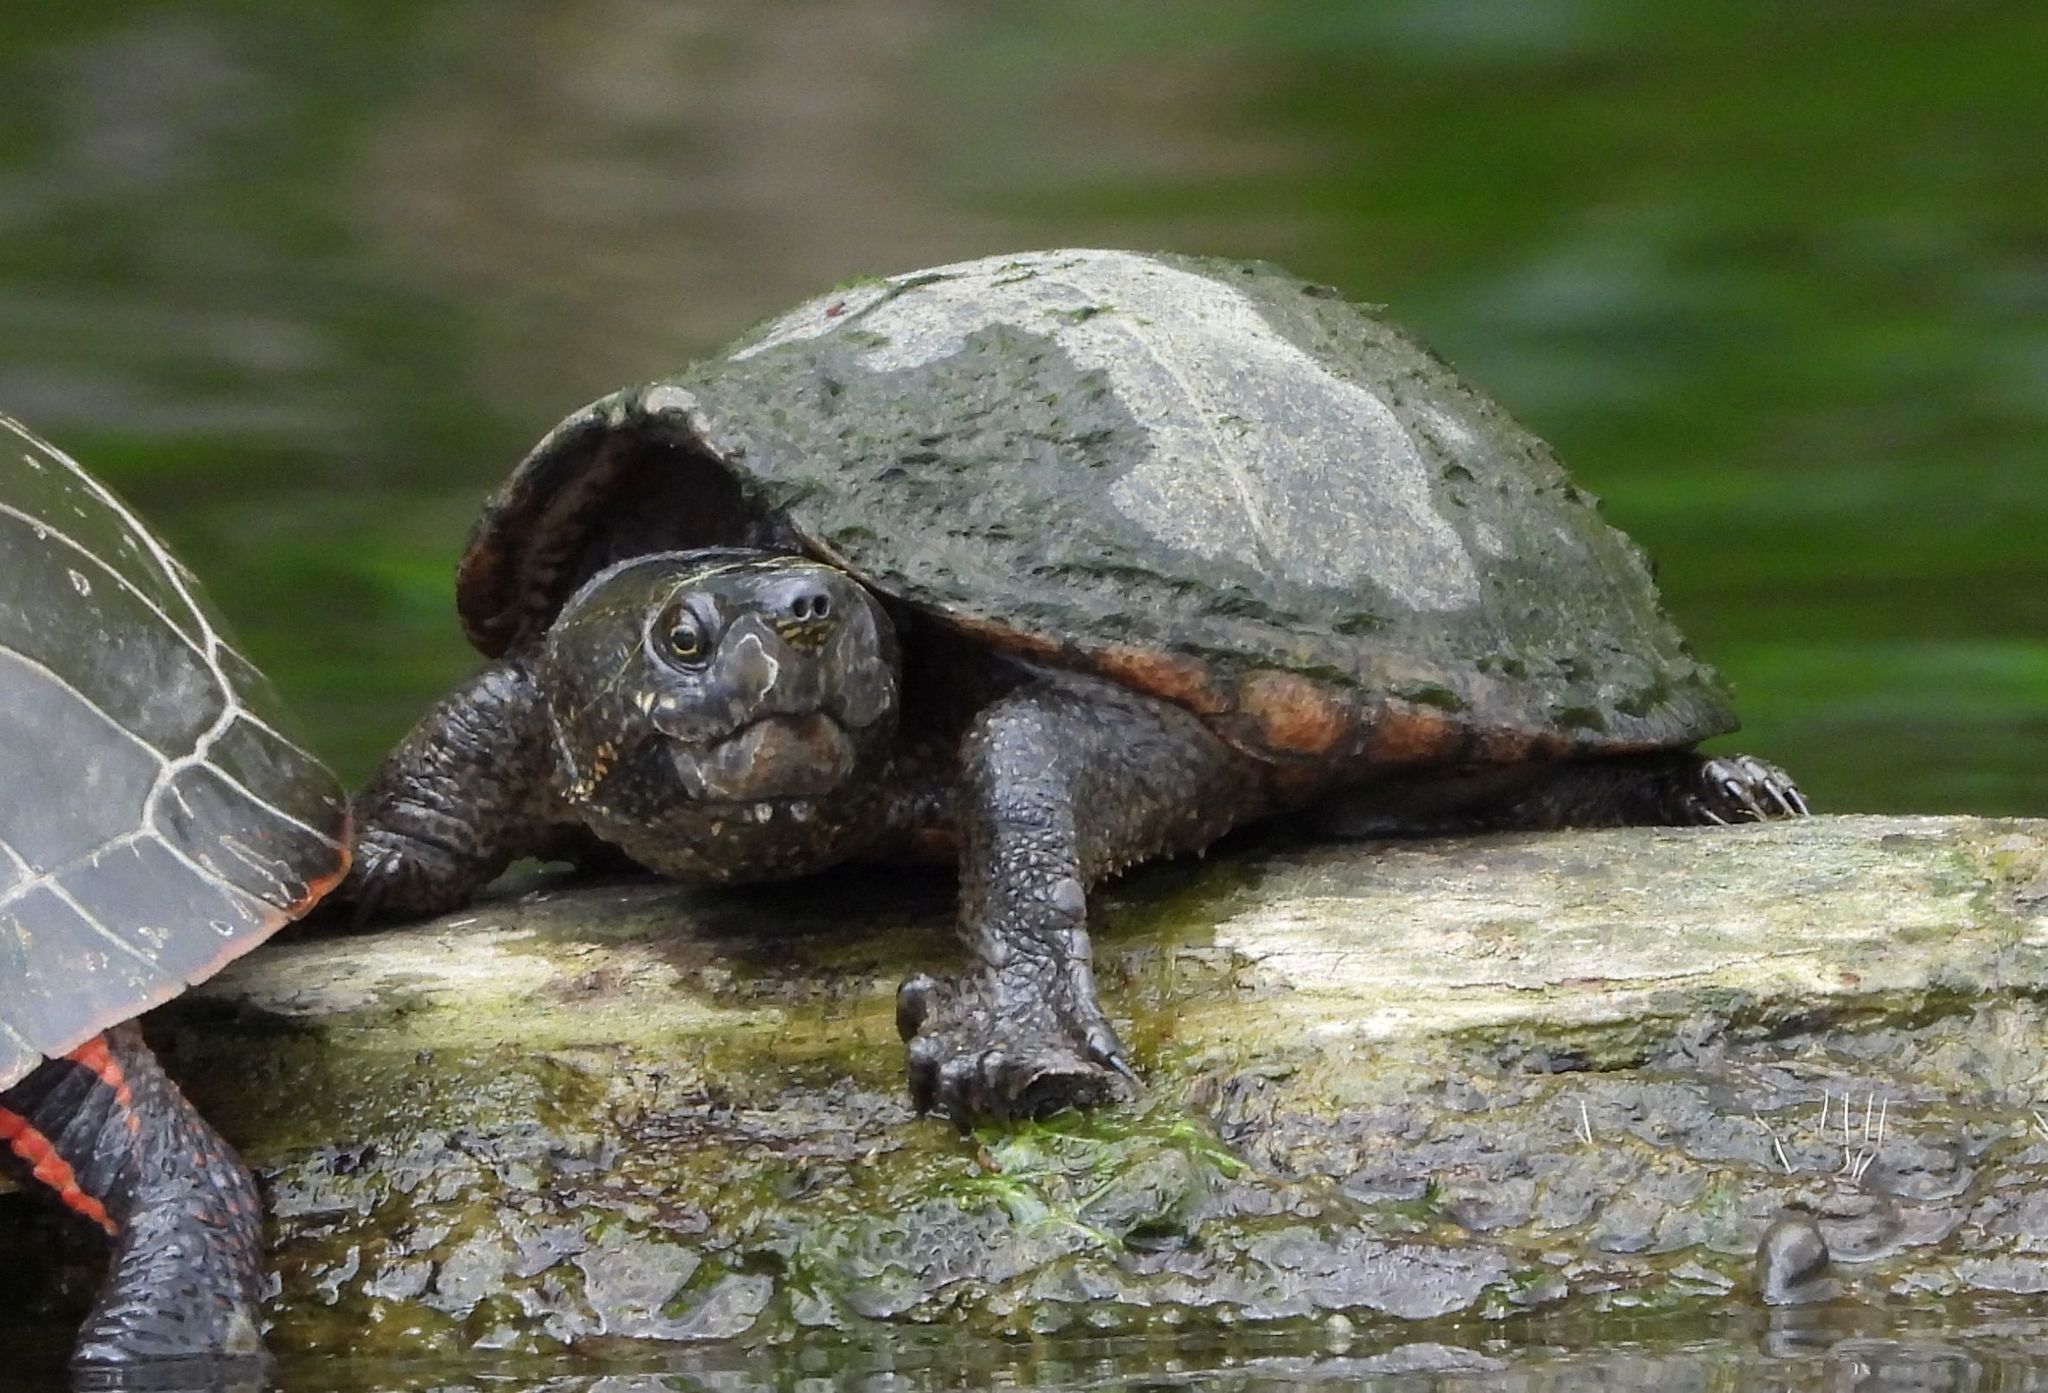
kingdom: Animalia
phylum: Chordata
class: Testudines
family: Kinosternidae
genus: Sternotherus
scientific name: Sternotherus odoratus
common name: Common musk turtle
